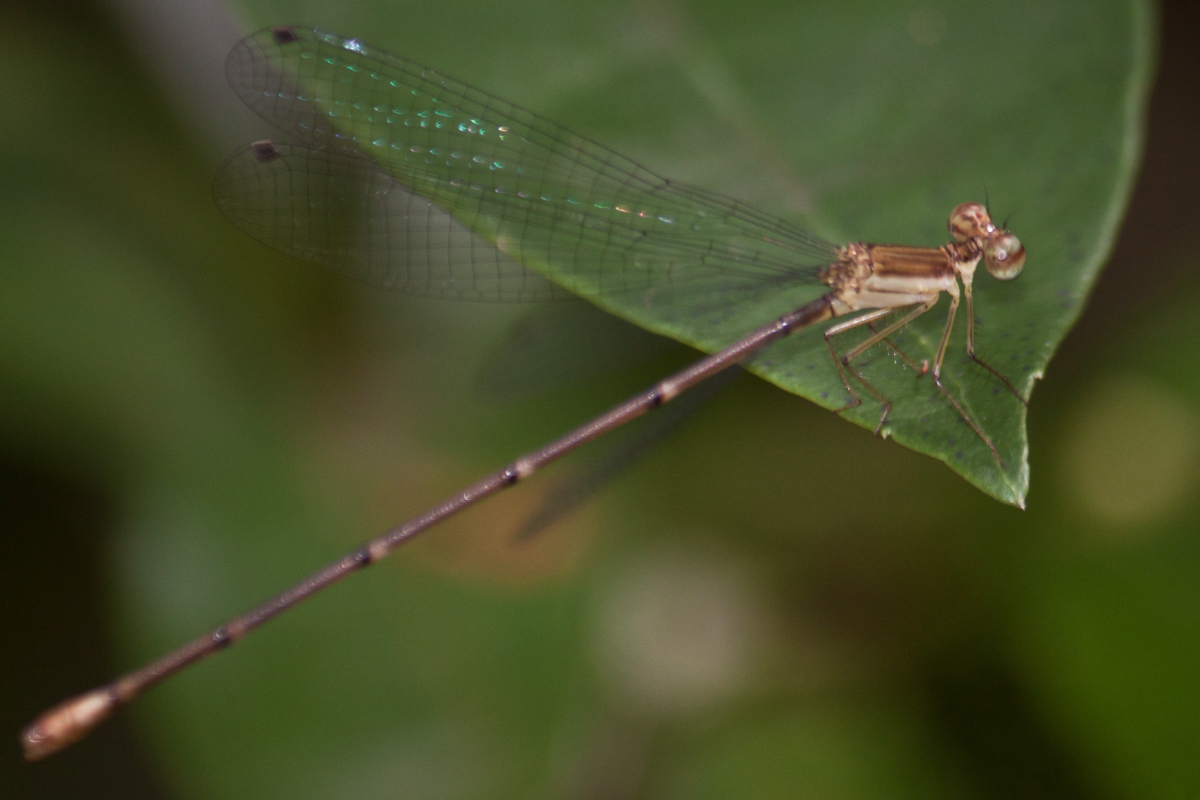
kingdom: Animalia
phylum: Arthropoda
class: Insecta
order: Odonata
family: Platycnemididae
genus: Coeliccia
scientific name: Coeliccia kazukoae
